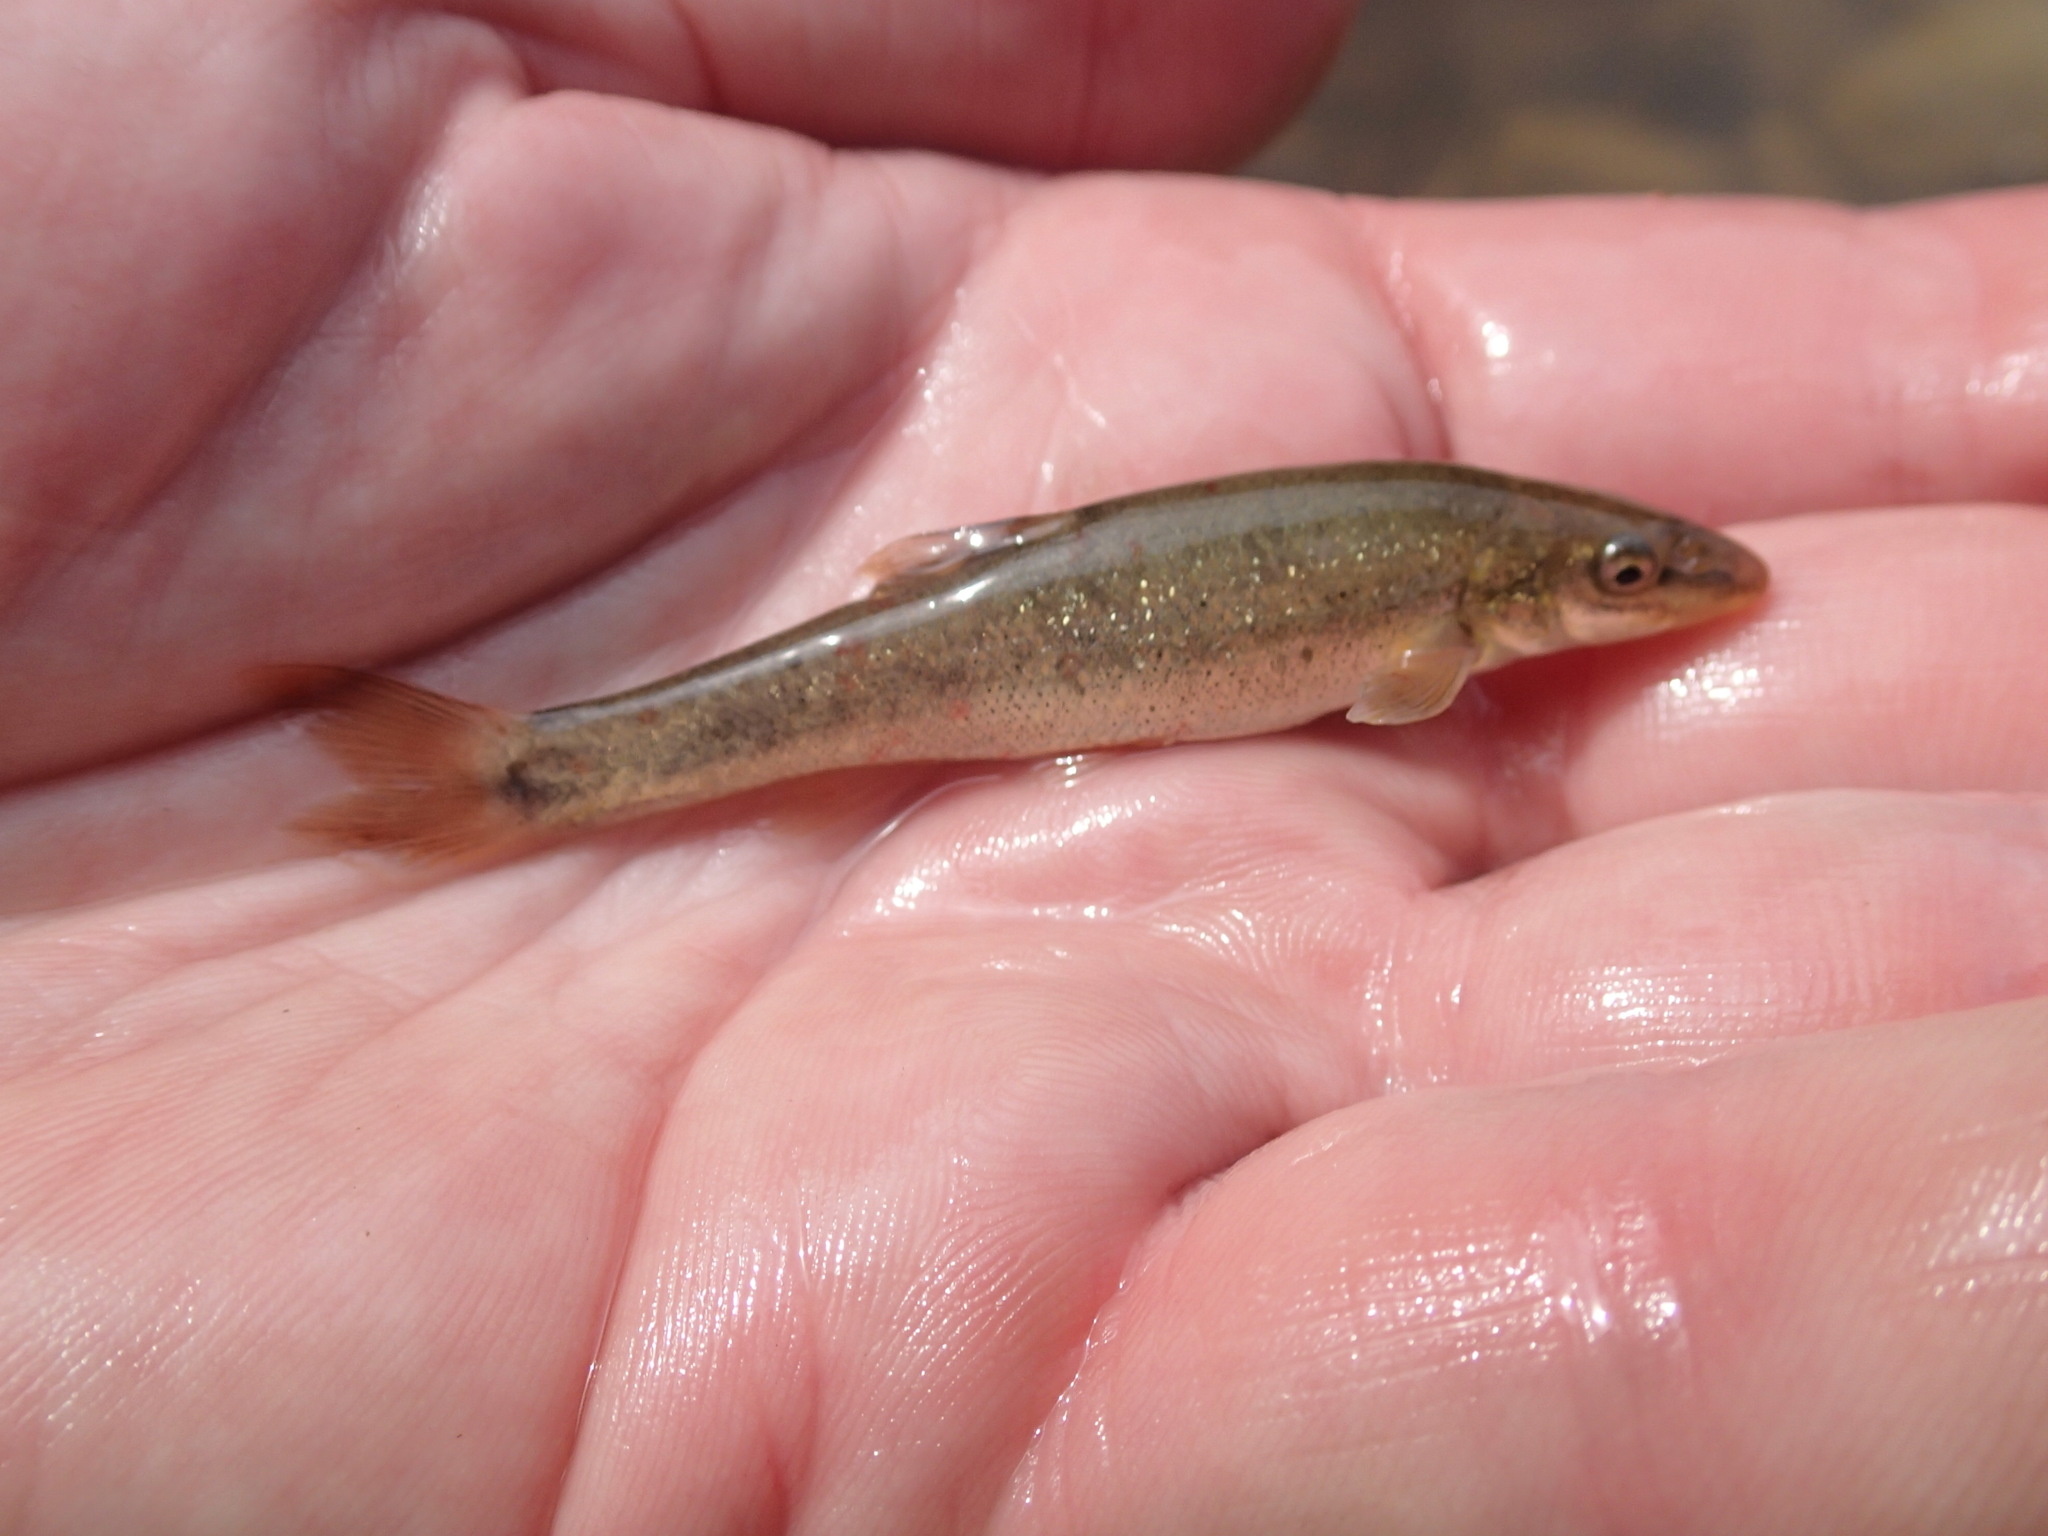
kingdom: Animalia
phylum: Chordata
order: Cypriniformes
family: Cyprinidae
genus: Rhinichthys
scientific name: Rhinichthys cataractae
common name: Longnose dace
